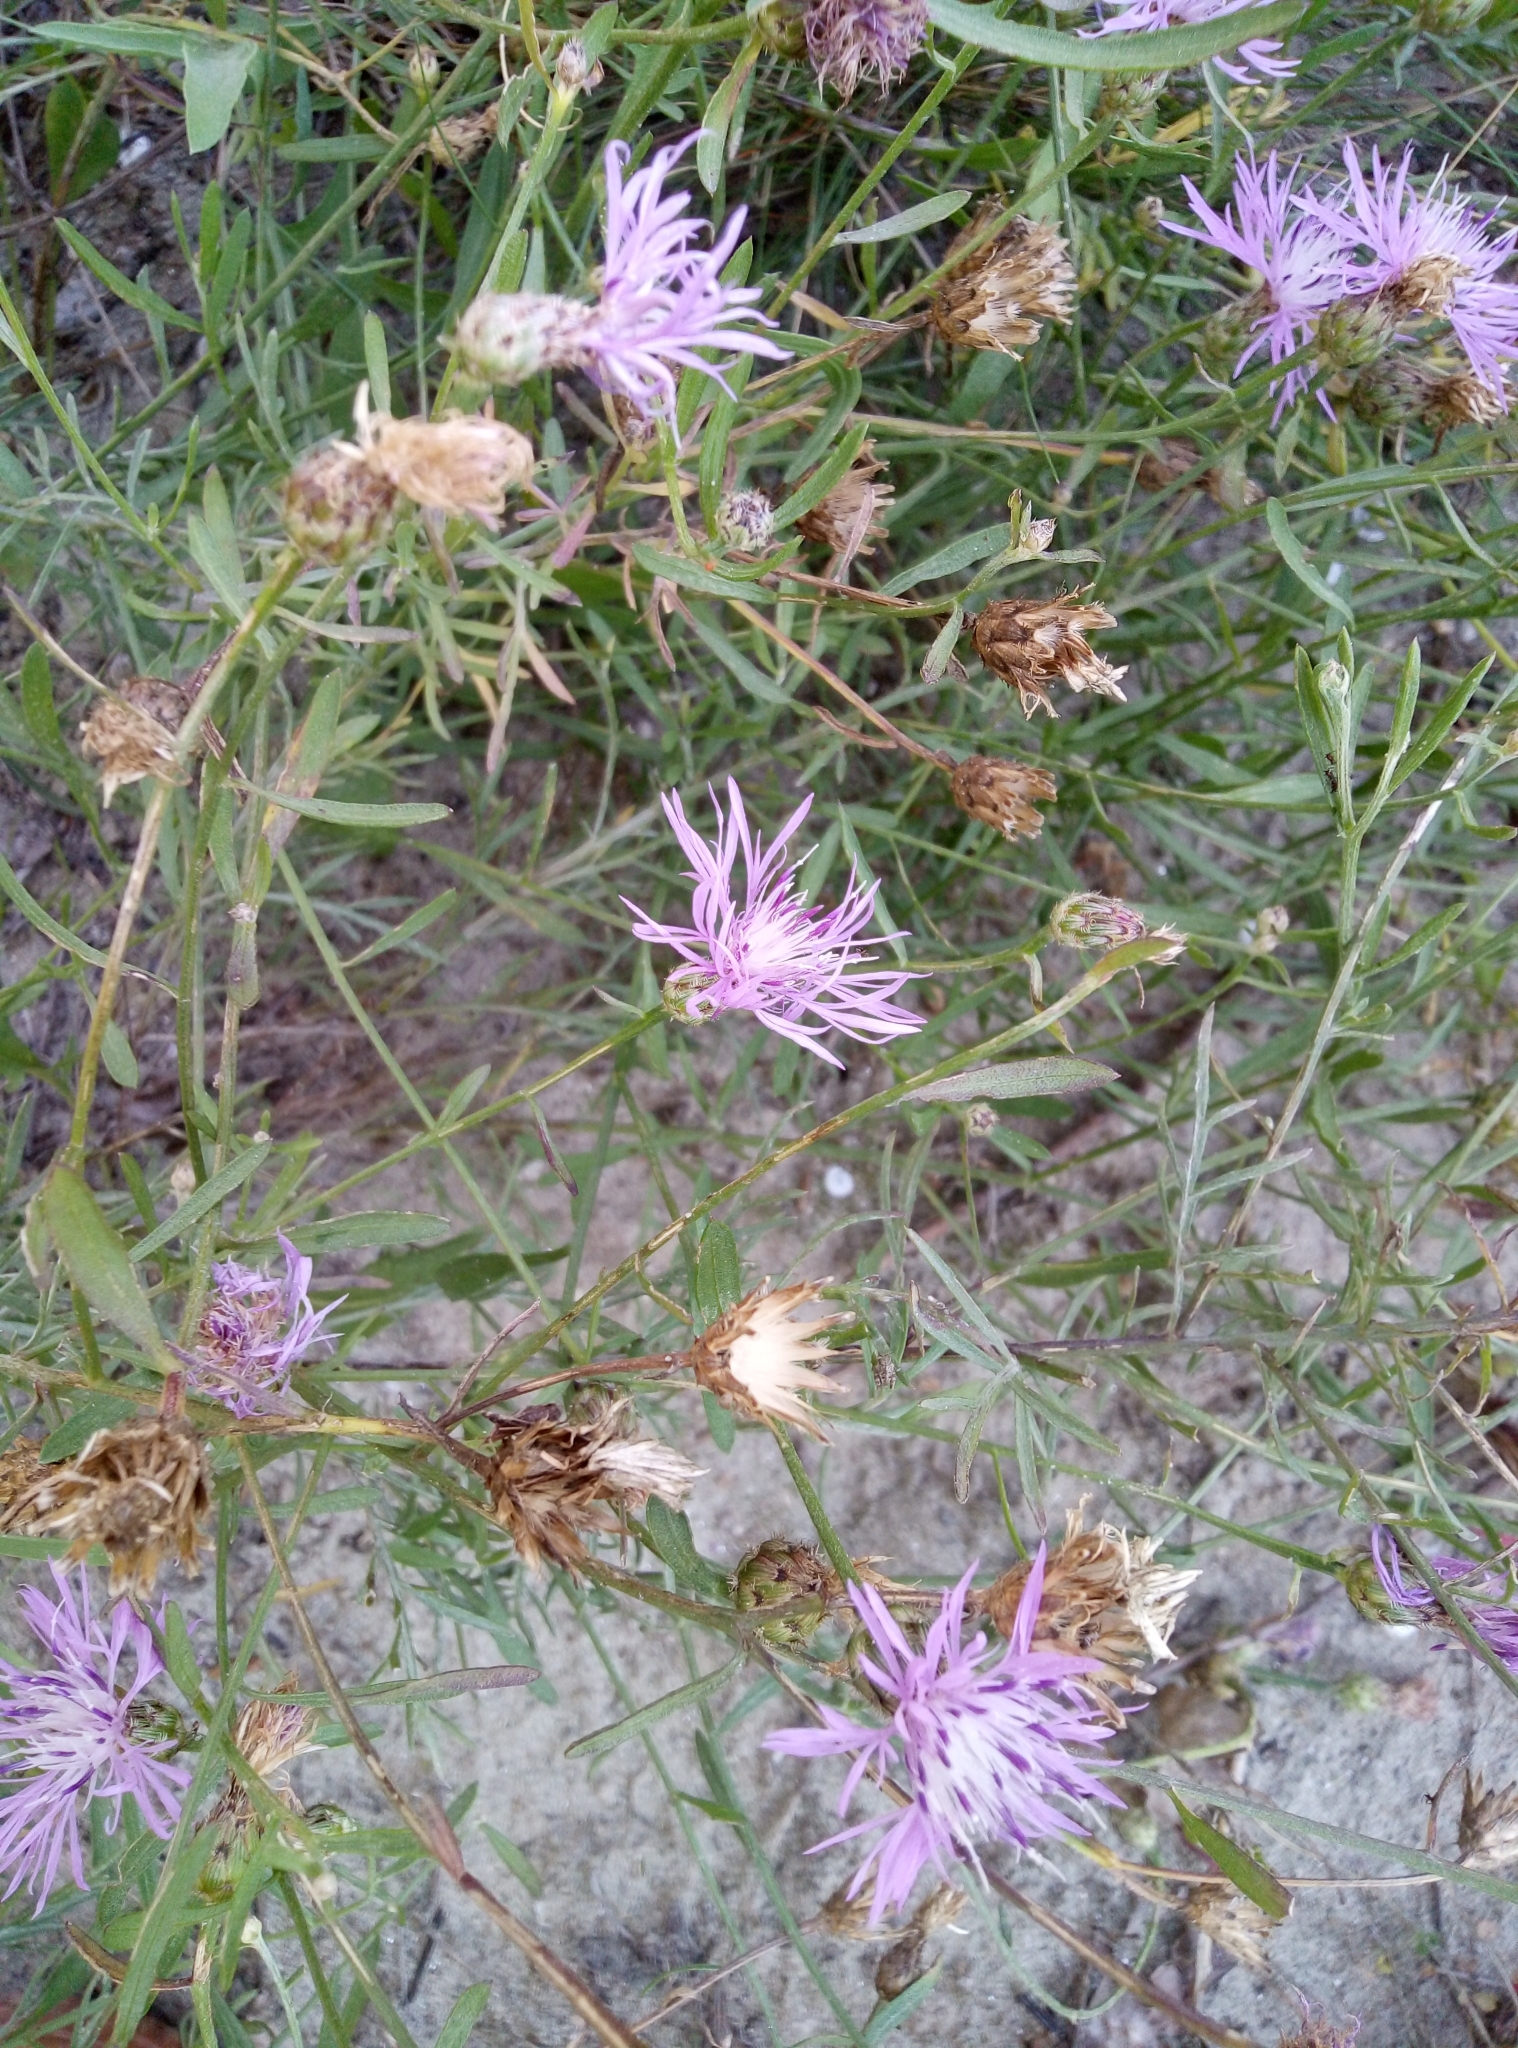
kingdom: Plantae
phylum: Tracheophyta
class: Magnoliopsida
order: Asterales
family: Asteraceae
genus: Centaurea
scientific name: Centaurea stoebe
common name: Spotted knapweed
